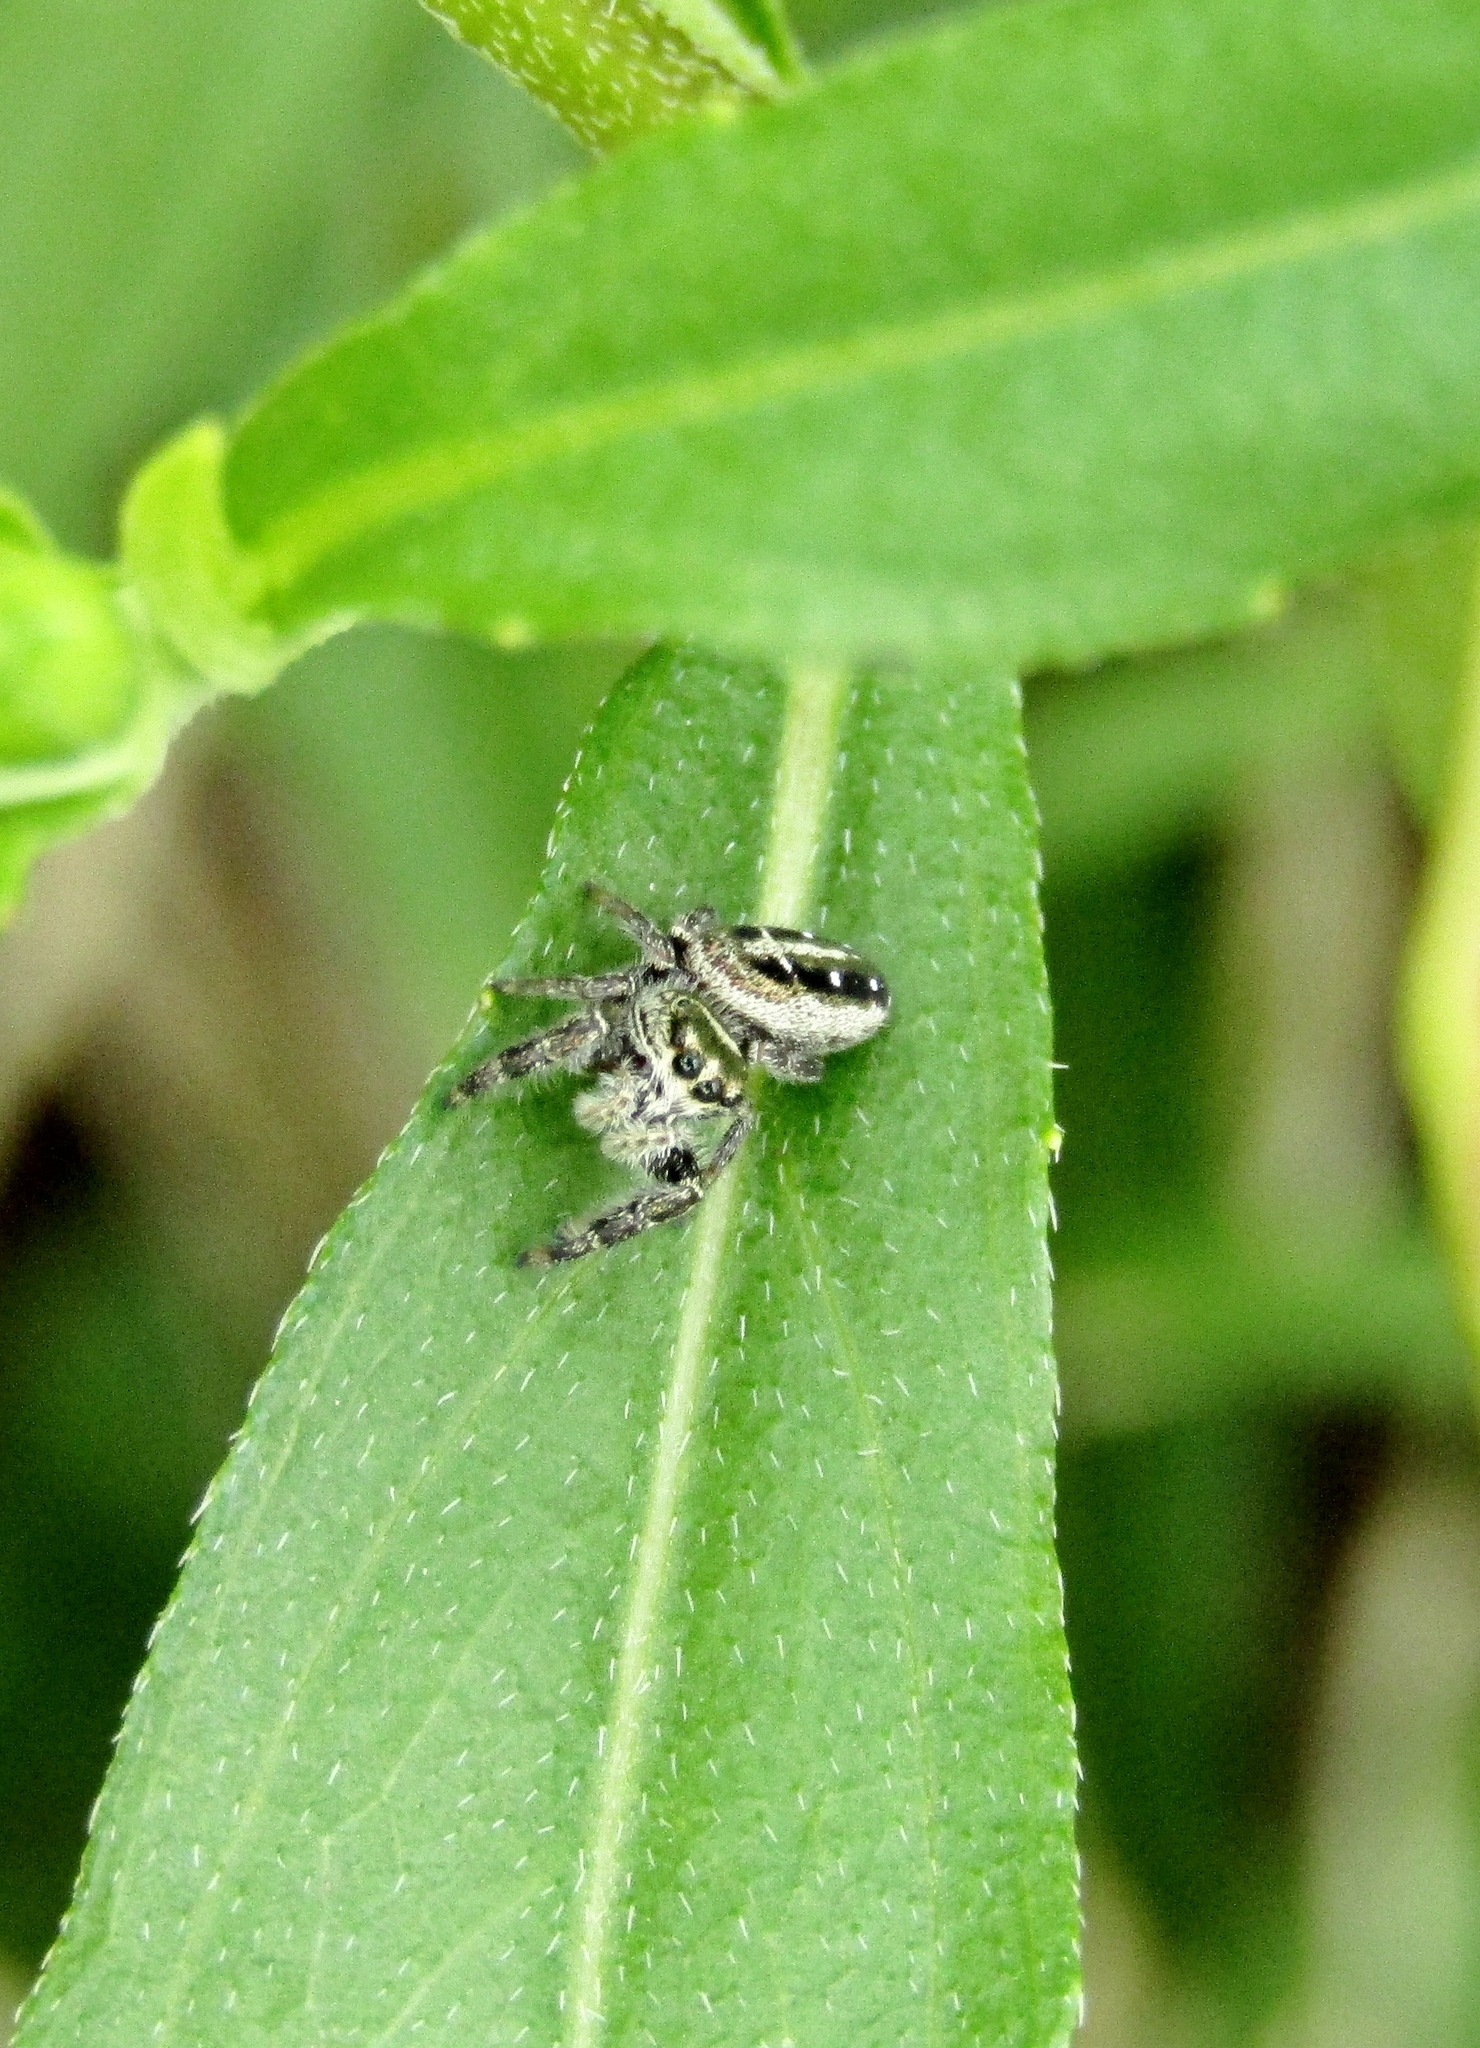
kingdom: Animalia
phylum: Arthropoda
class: Arachnida
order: Araneae
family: Salticidae
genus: Dendryphantes
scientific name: Dendryphantes mordax
